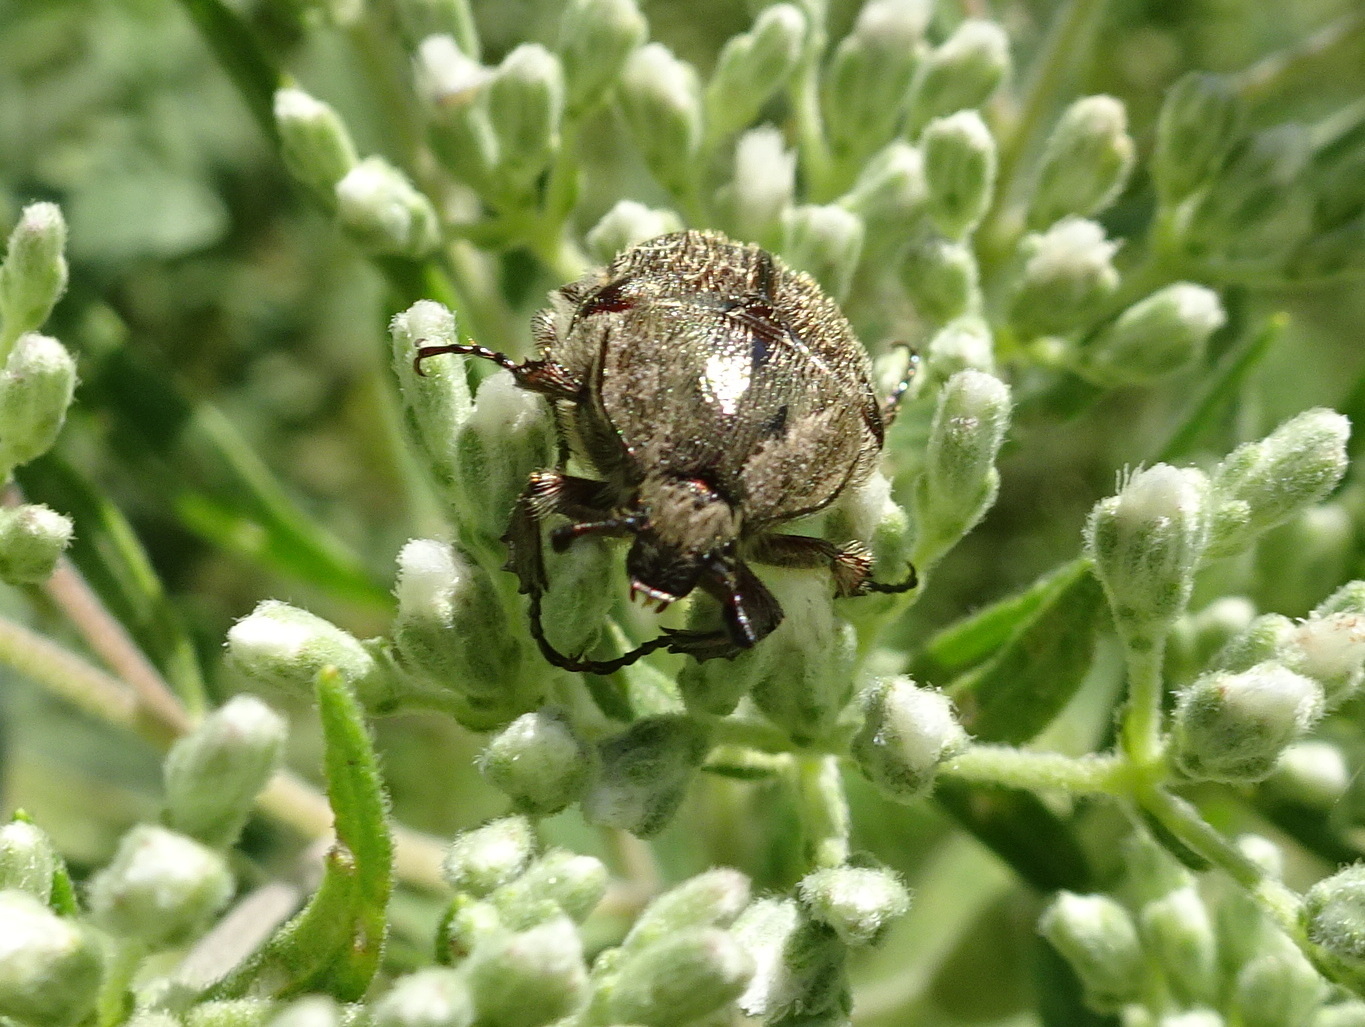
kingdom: Animalia
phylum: Arthropoda
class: Insecta
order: Coleoptera
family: Scarabaeidae
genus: Euphoria
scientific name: Euphoria sepulcralis
